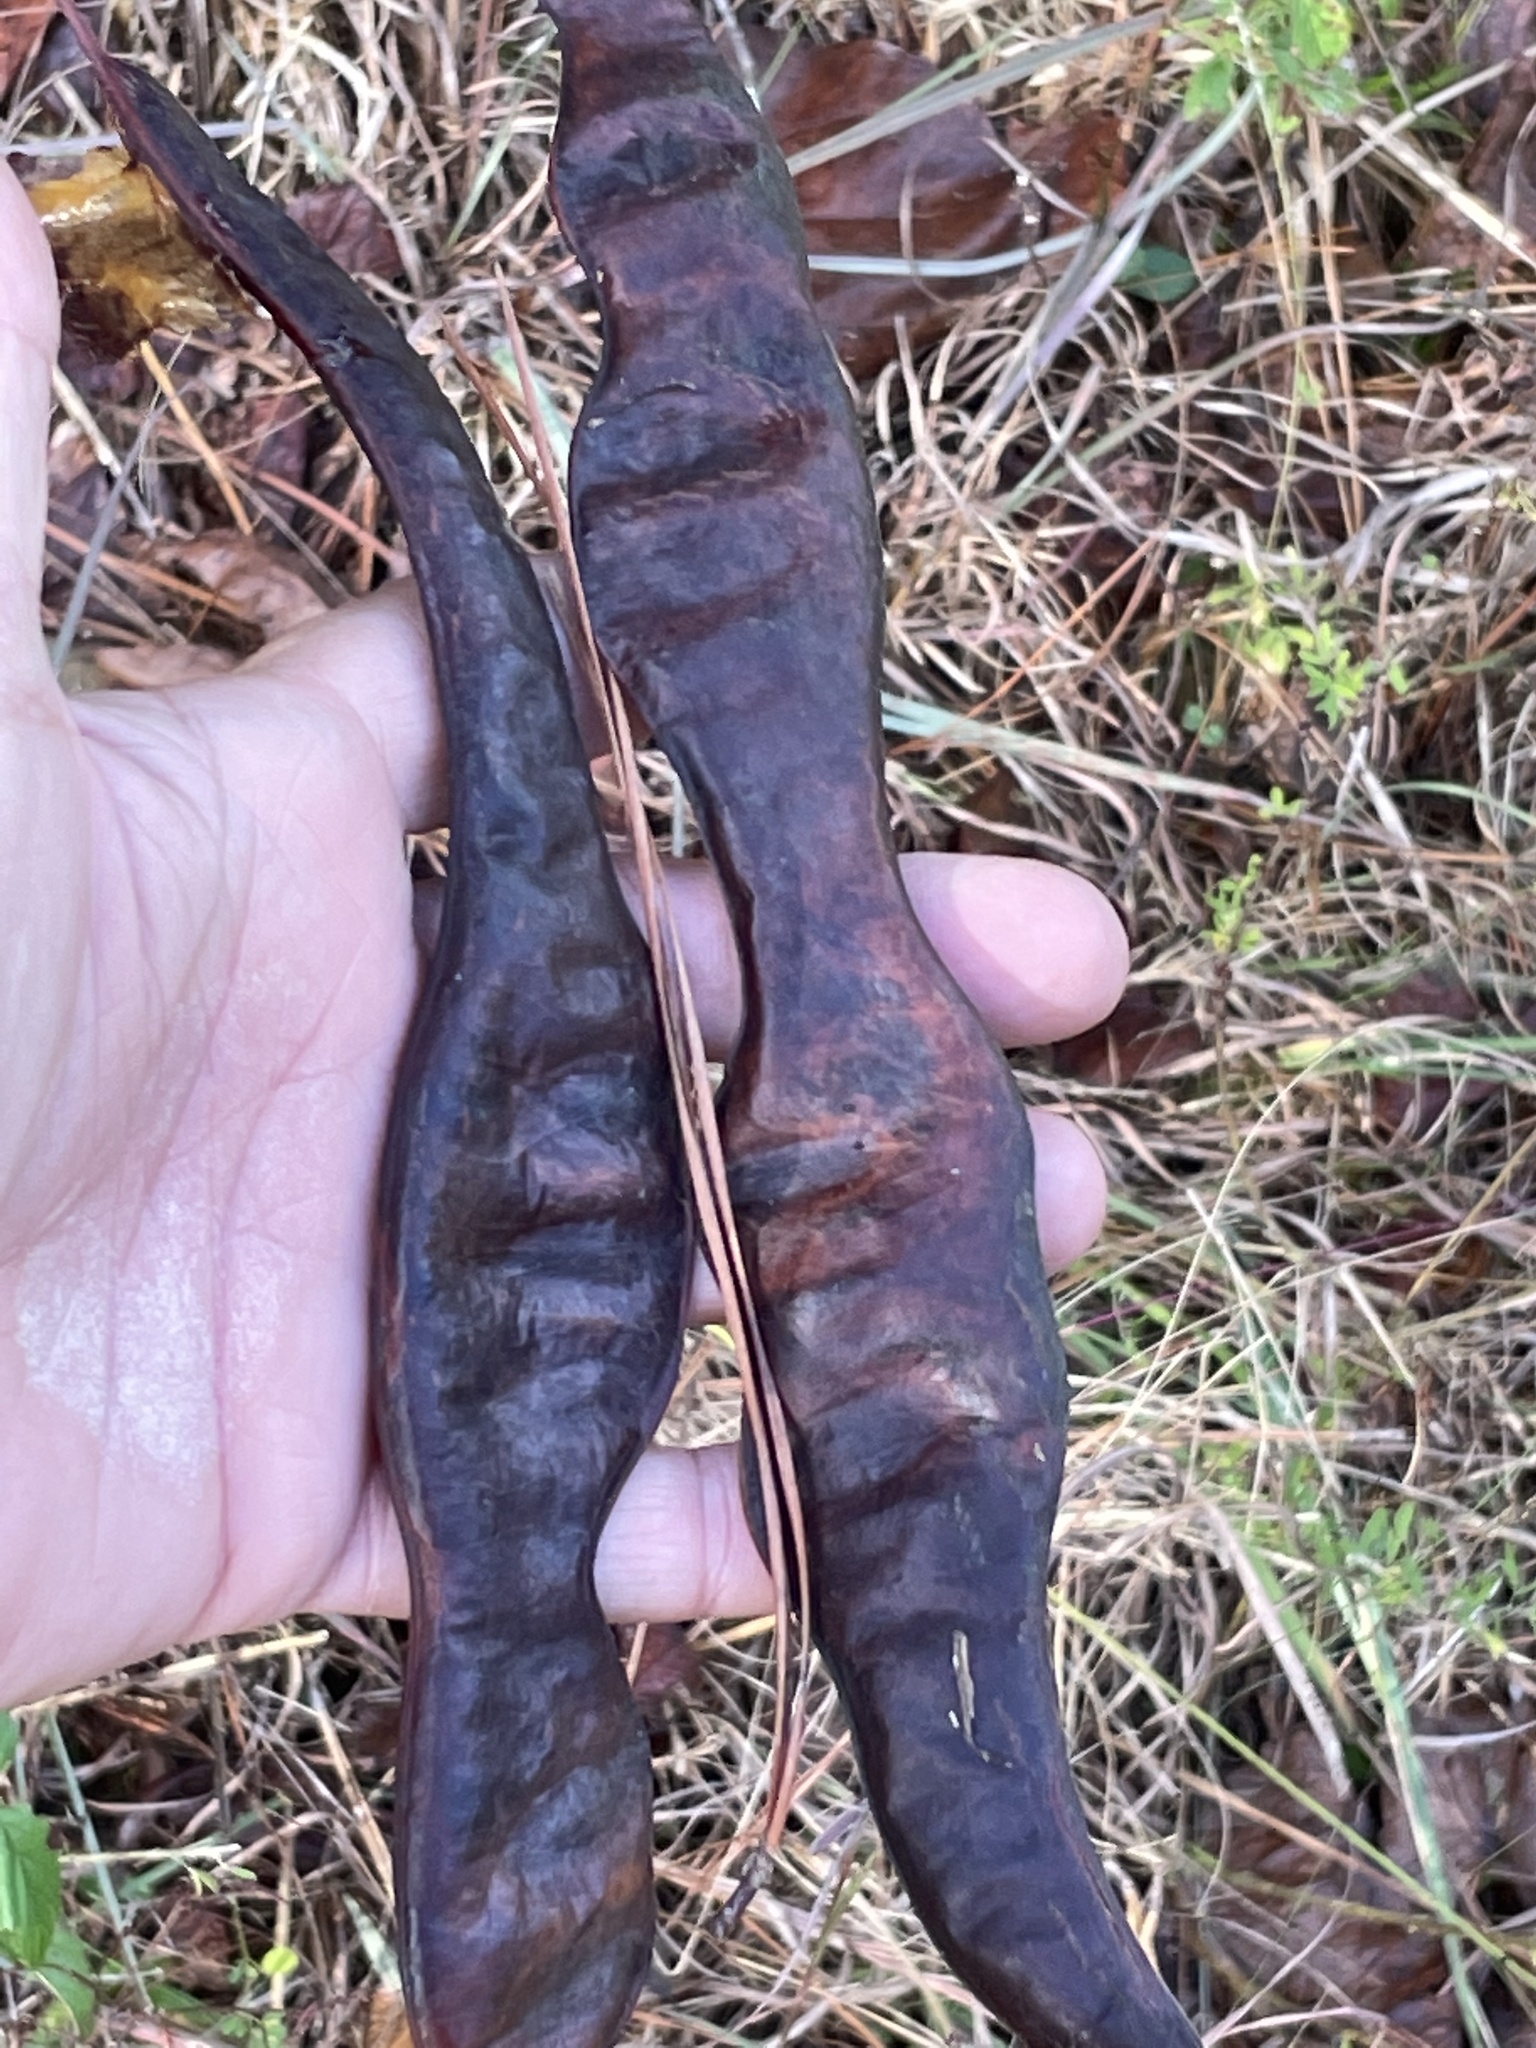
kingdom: Plantae
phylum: Tracheophyta
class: Magnoliopsida
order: Fabales
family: Fabaceae
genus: Gleditsia
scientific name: Gleditsia triacanthos
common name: Common honeylocust
